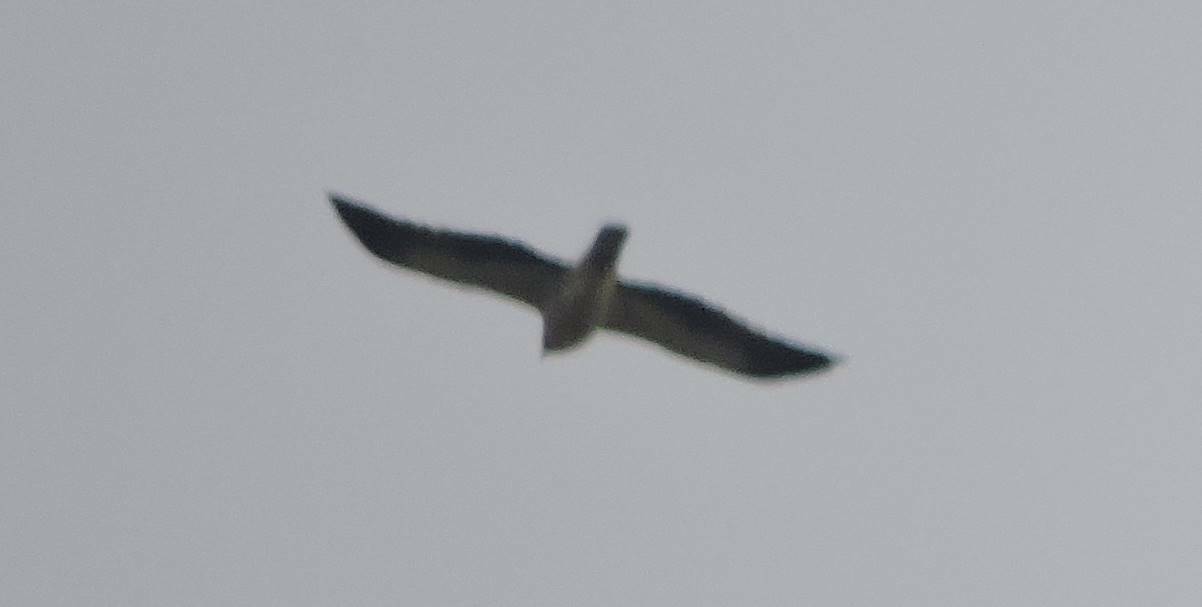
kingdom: Animalia
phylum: Chordata
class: Aves
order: Accipitriformes
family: Accipitridae
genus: Hieraaetus
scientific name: Hieraaetus pennatus
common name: Booted eagle
